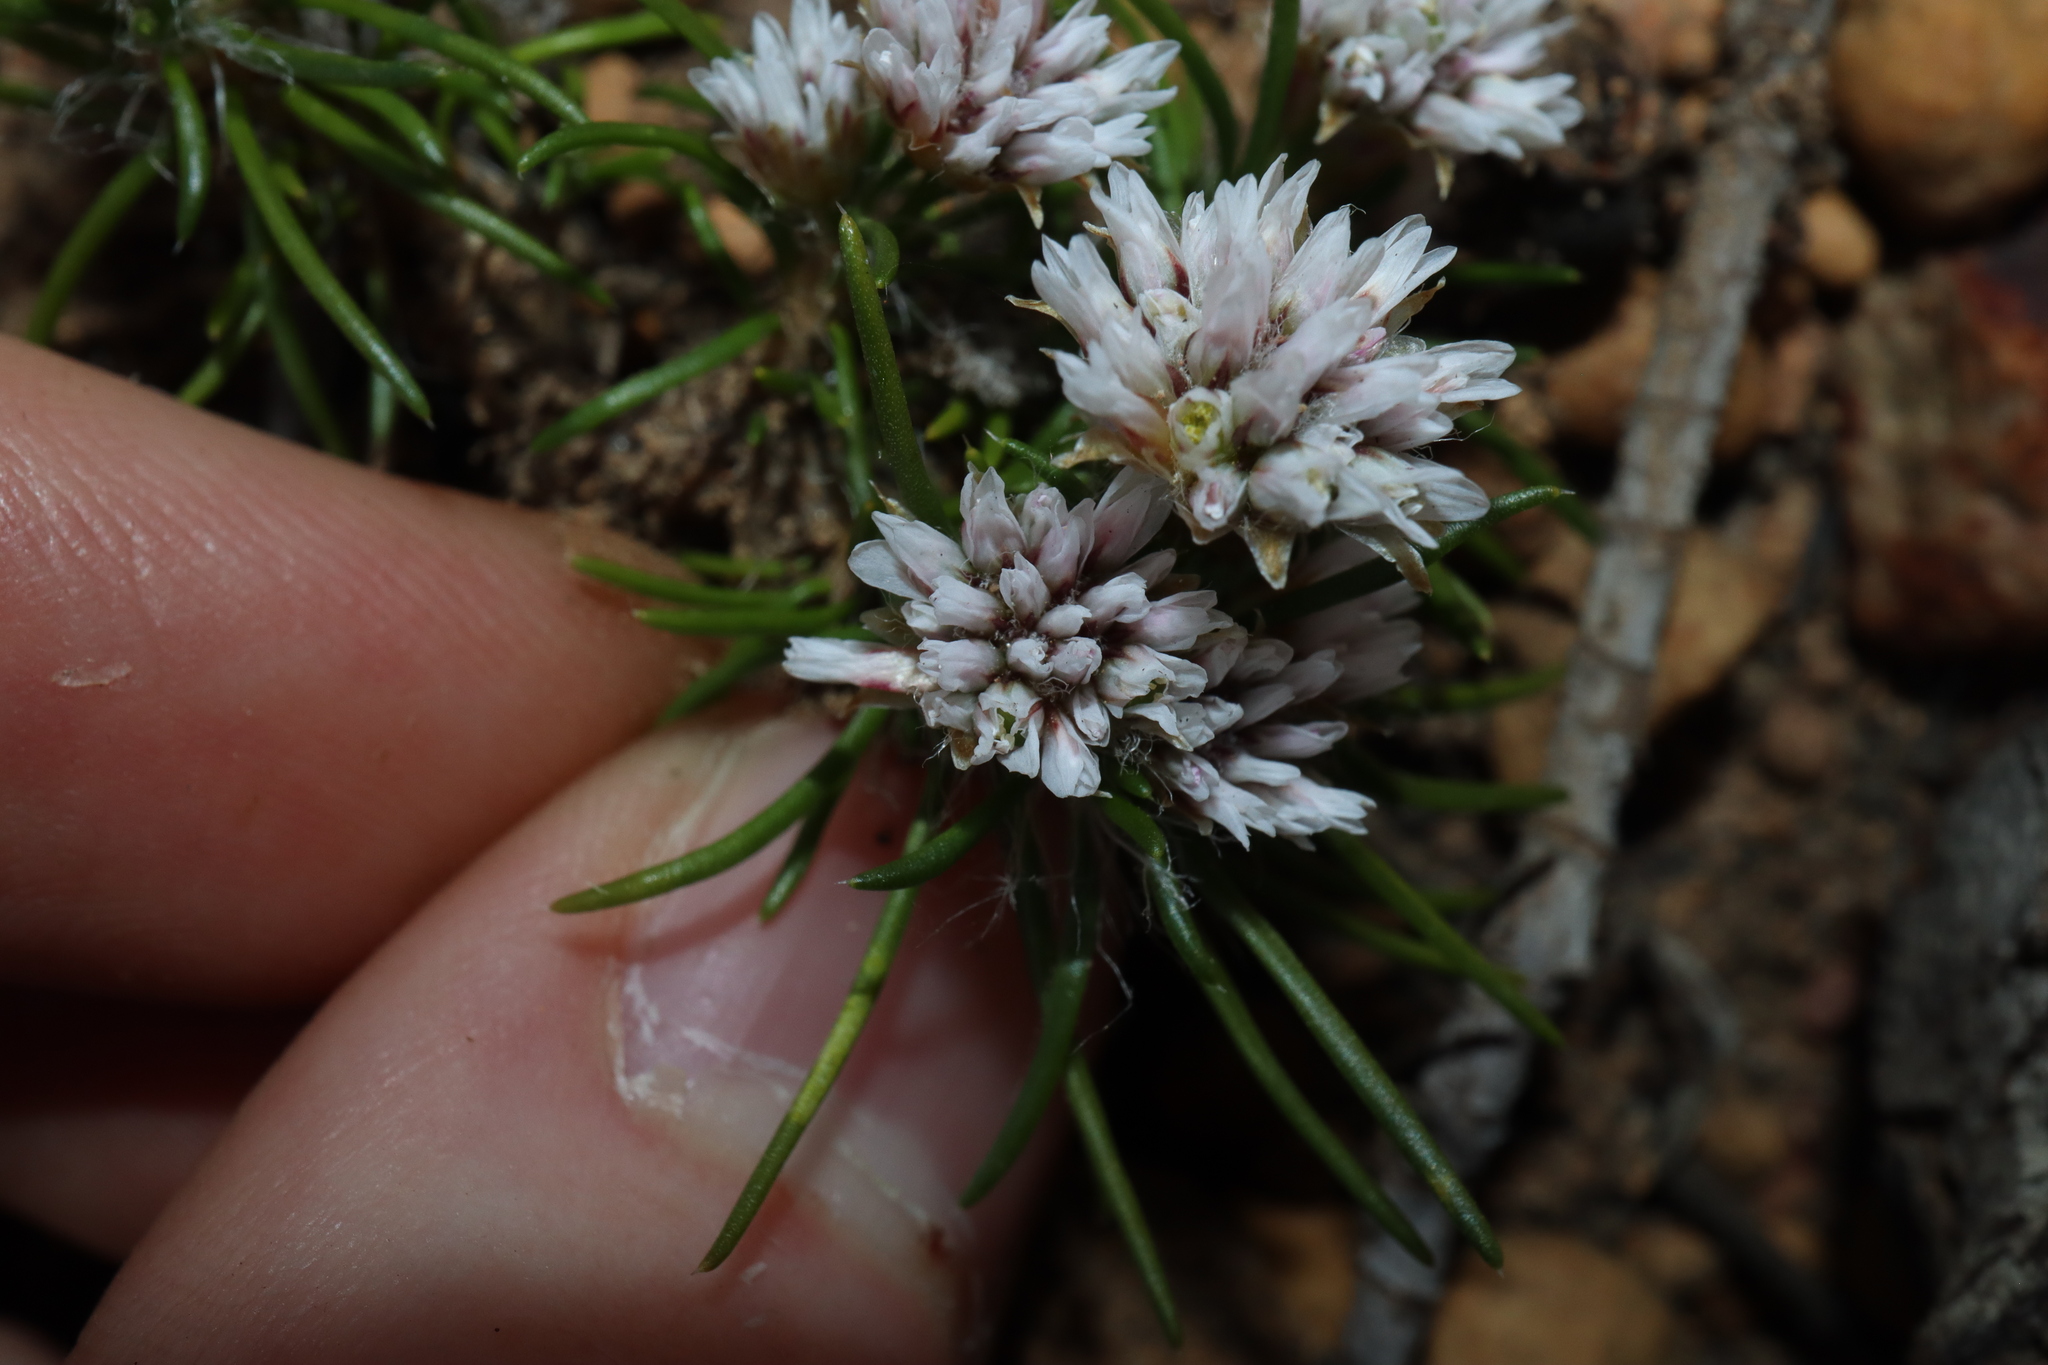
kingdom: Plantae
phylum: Tracheophyta
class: Liliopsida
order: Asparagales
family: Asparagaceae
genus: Laxmannia
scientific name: Laxmannia squarrosa
